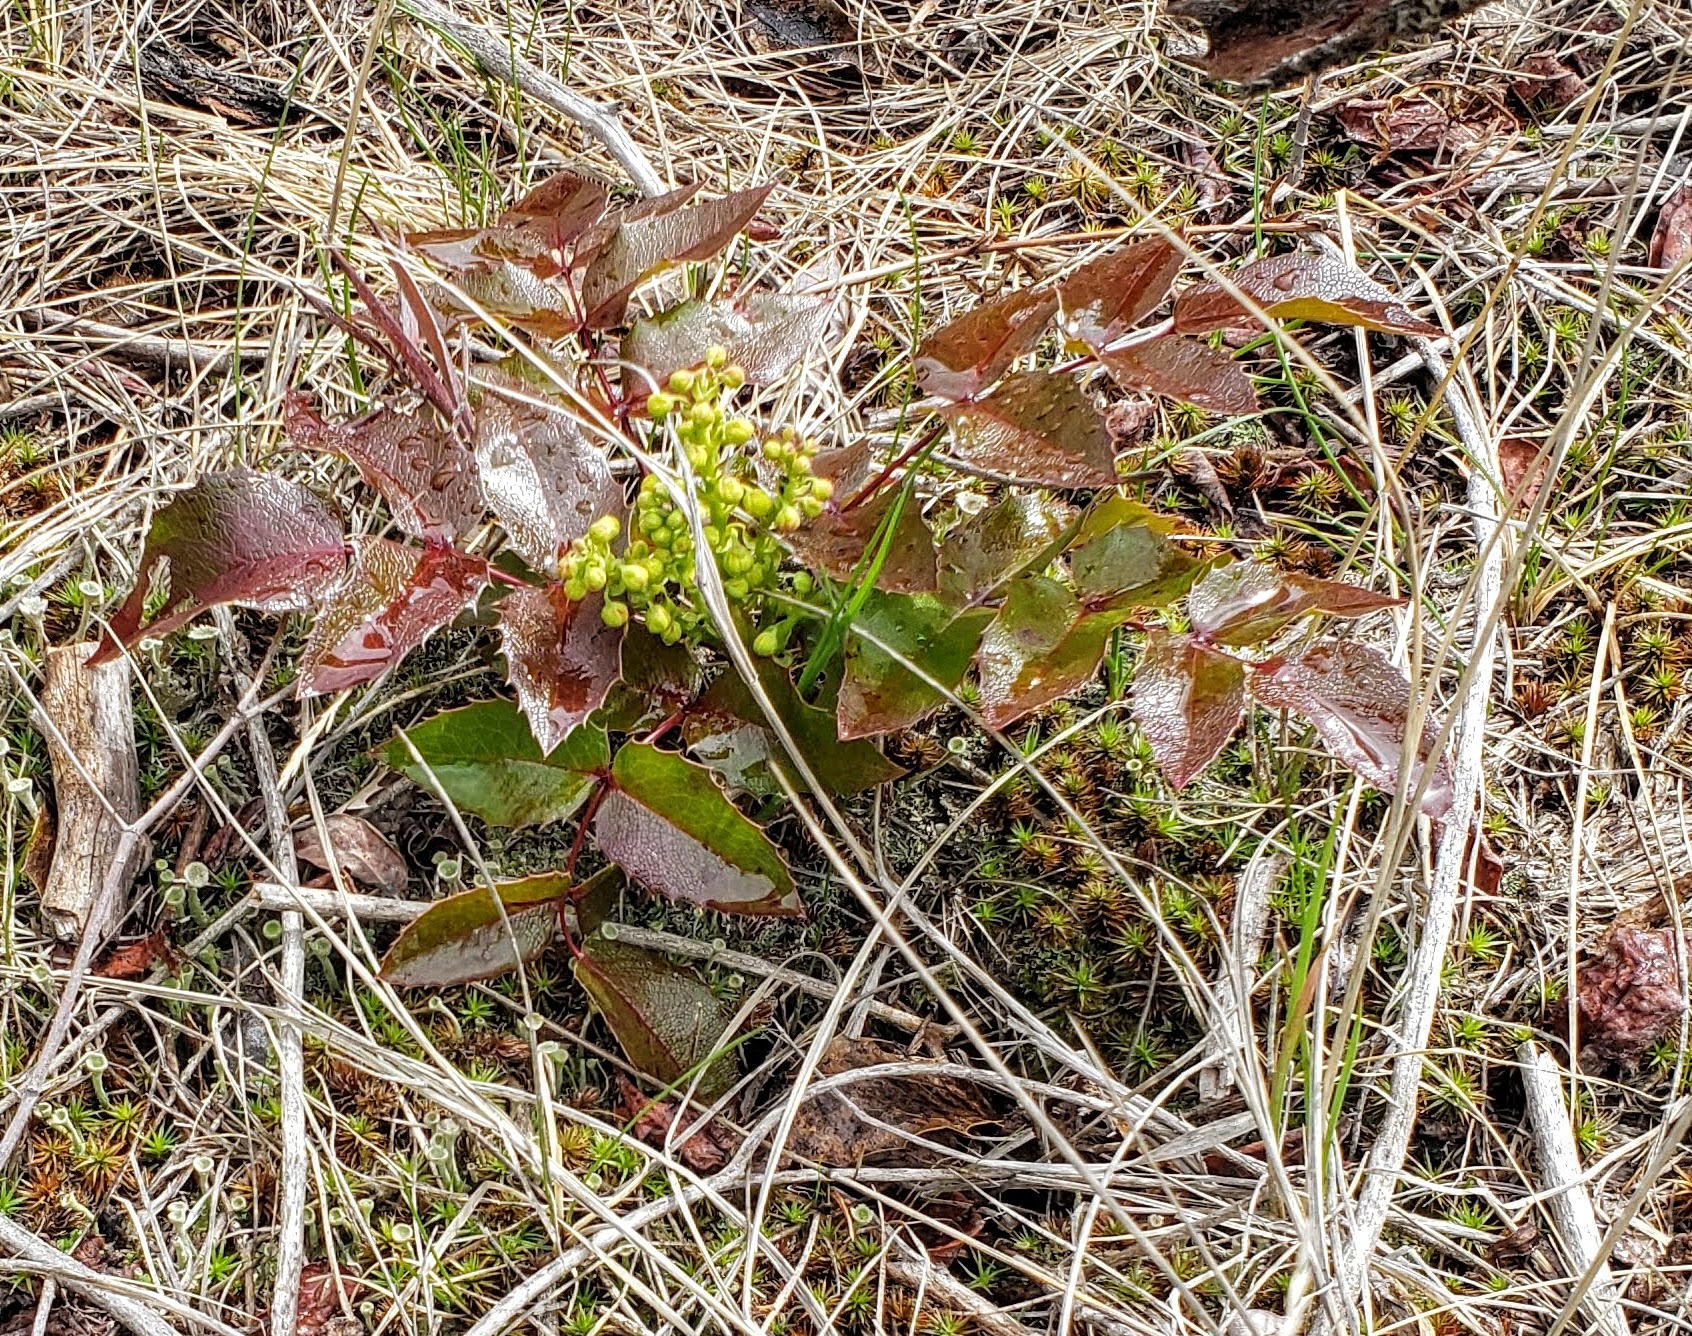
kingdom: Plantae
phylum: Tracheophyta
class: Magnoliopsida
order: Ranunculales
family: Berberidaceae
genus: Mahonia
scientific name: Mahonia aquifolium
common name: Oregon-grape
